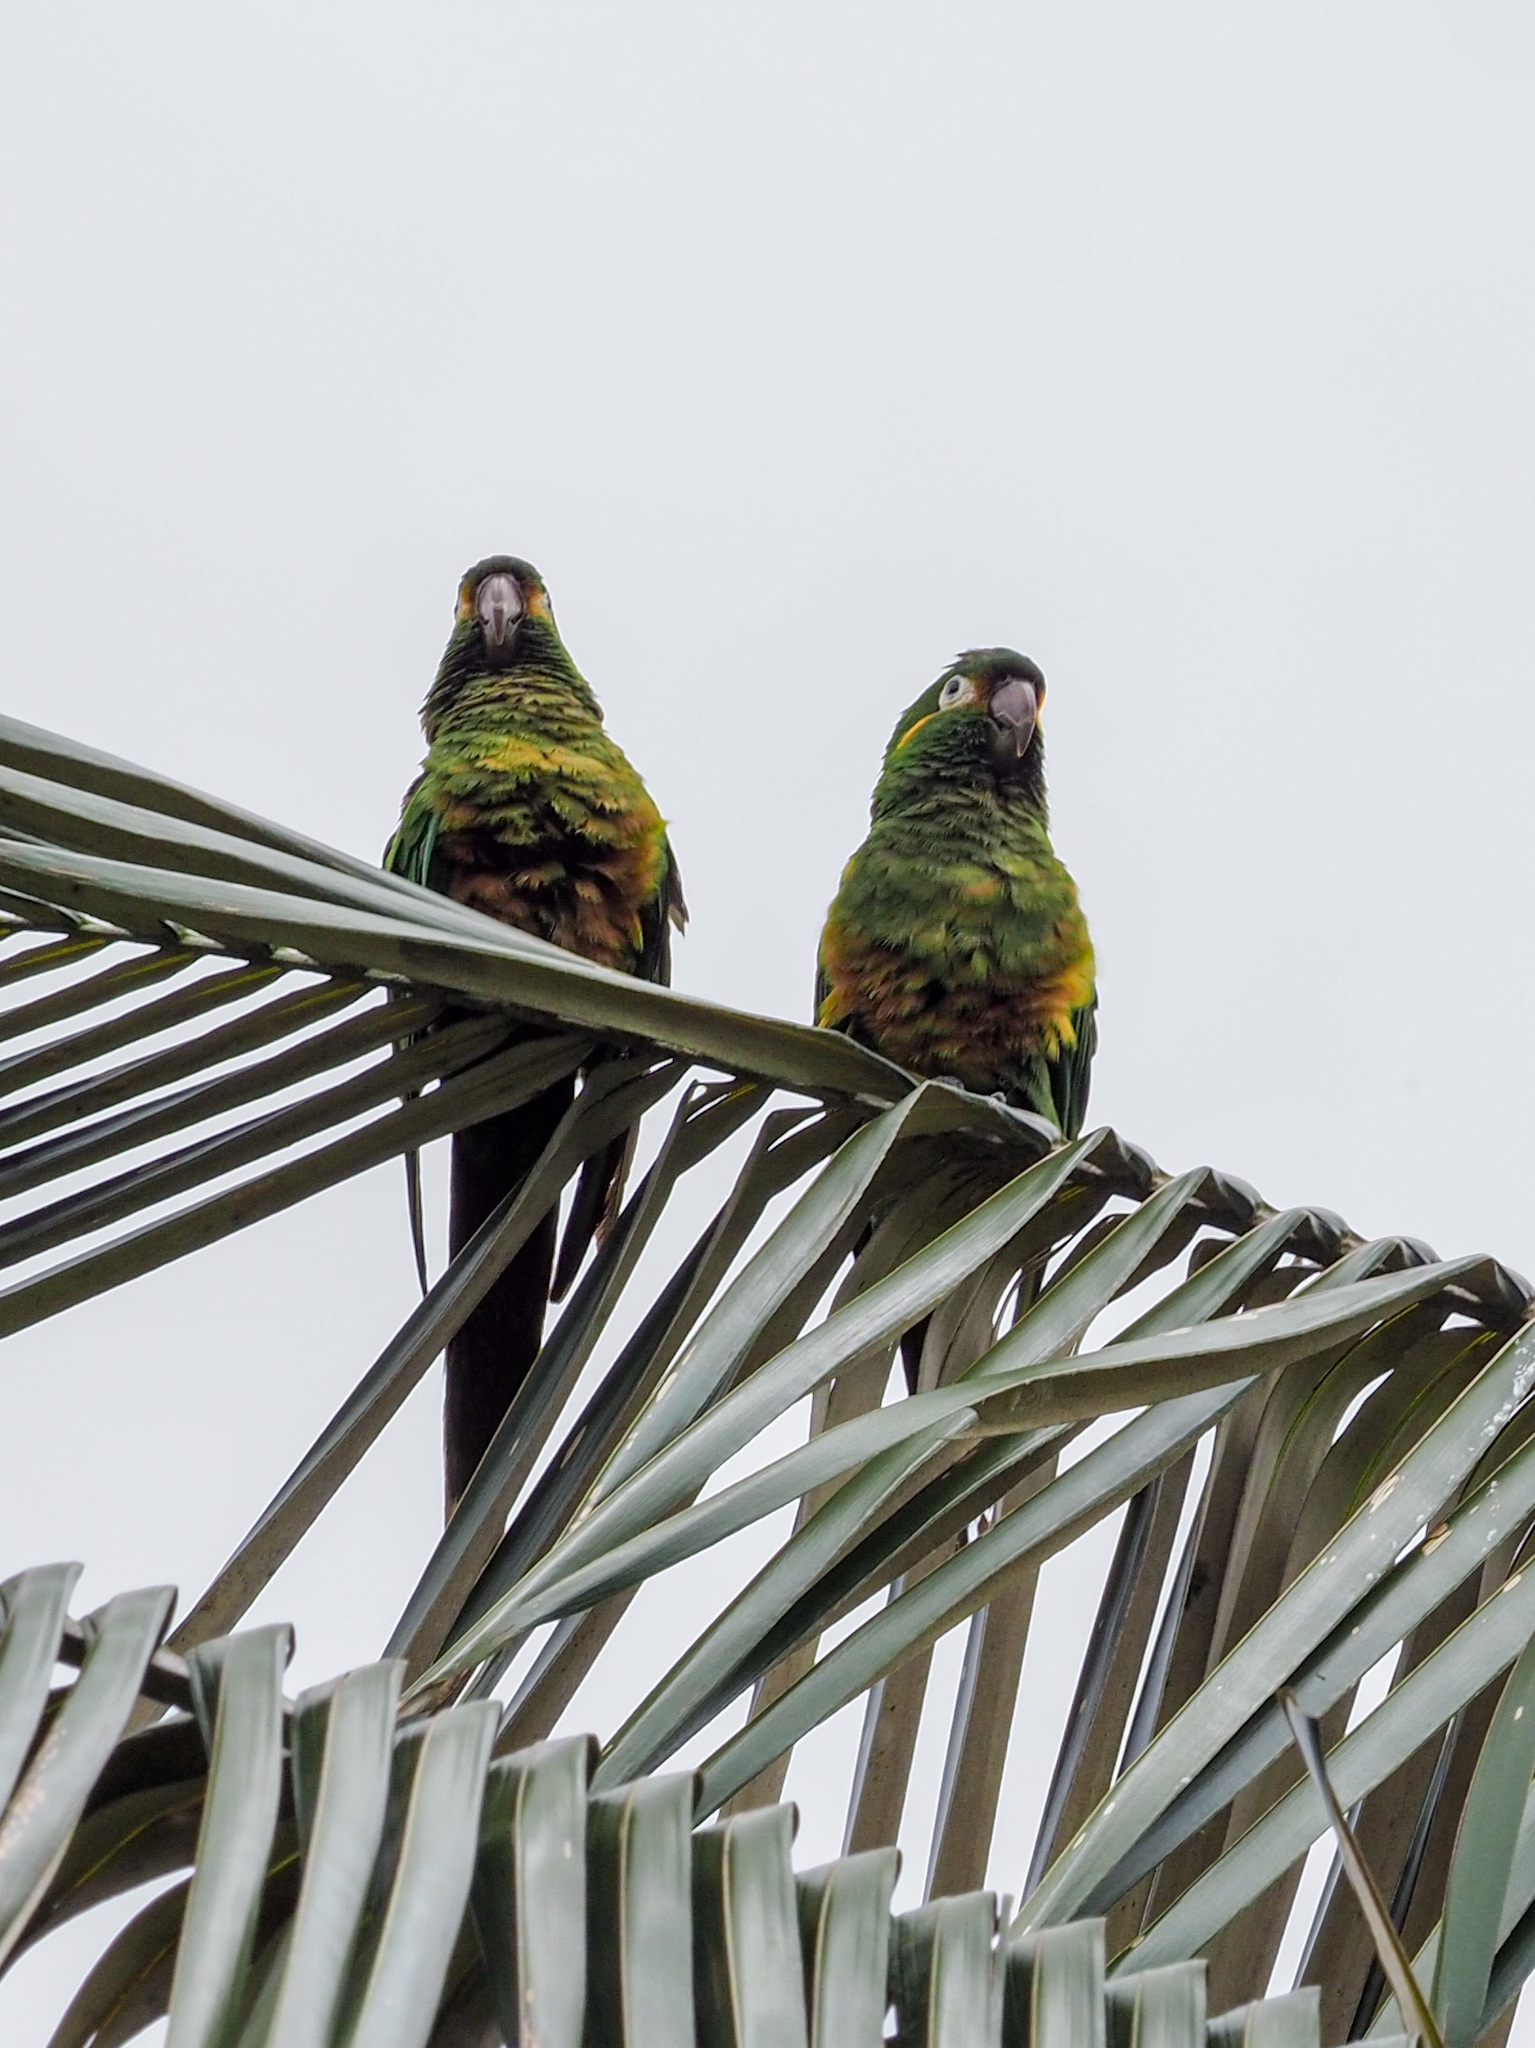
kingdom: Animalia
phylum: Chordata
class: Aves
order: Psittaciformes
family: Psittacidae
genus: Leptosittaca
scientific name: Leptosittaca branickii
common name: Golden-plumed parakeet
